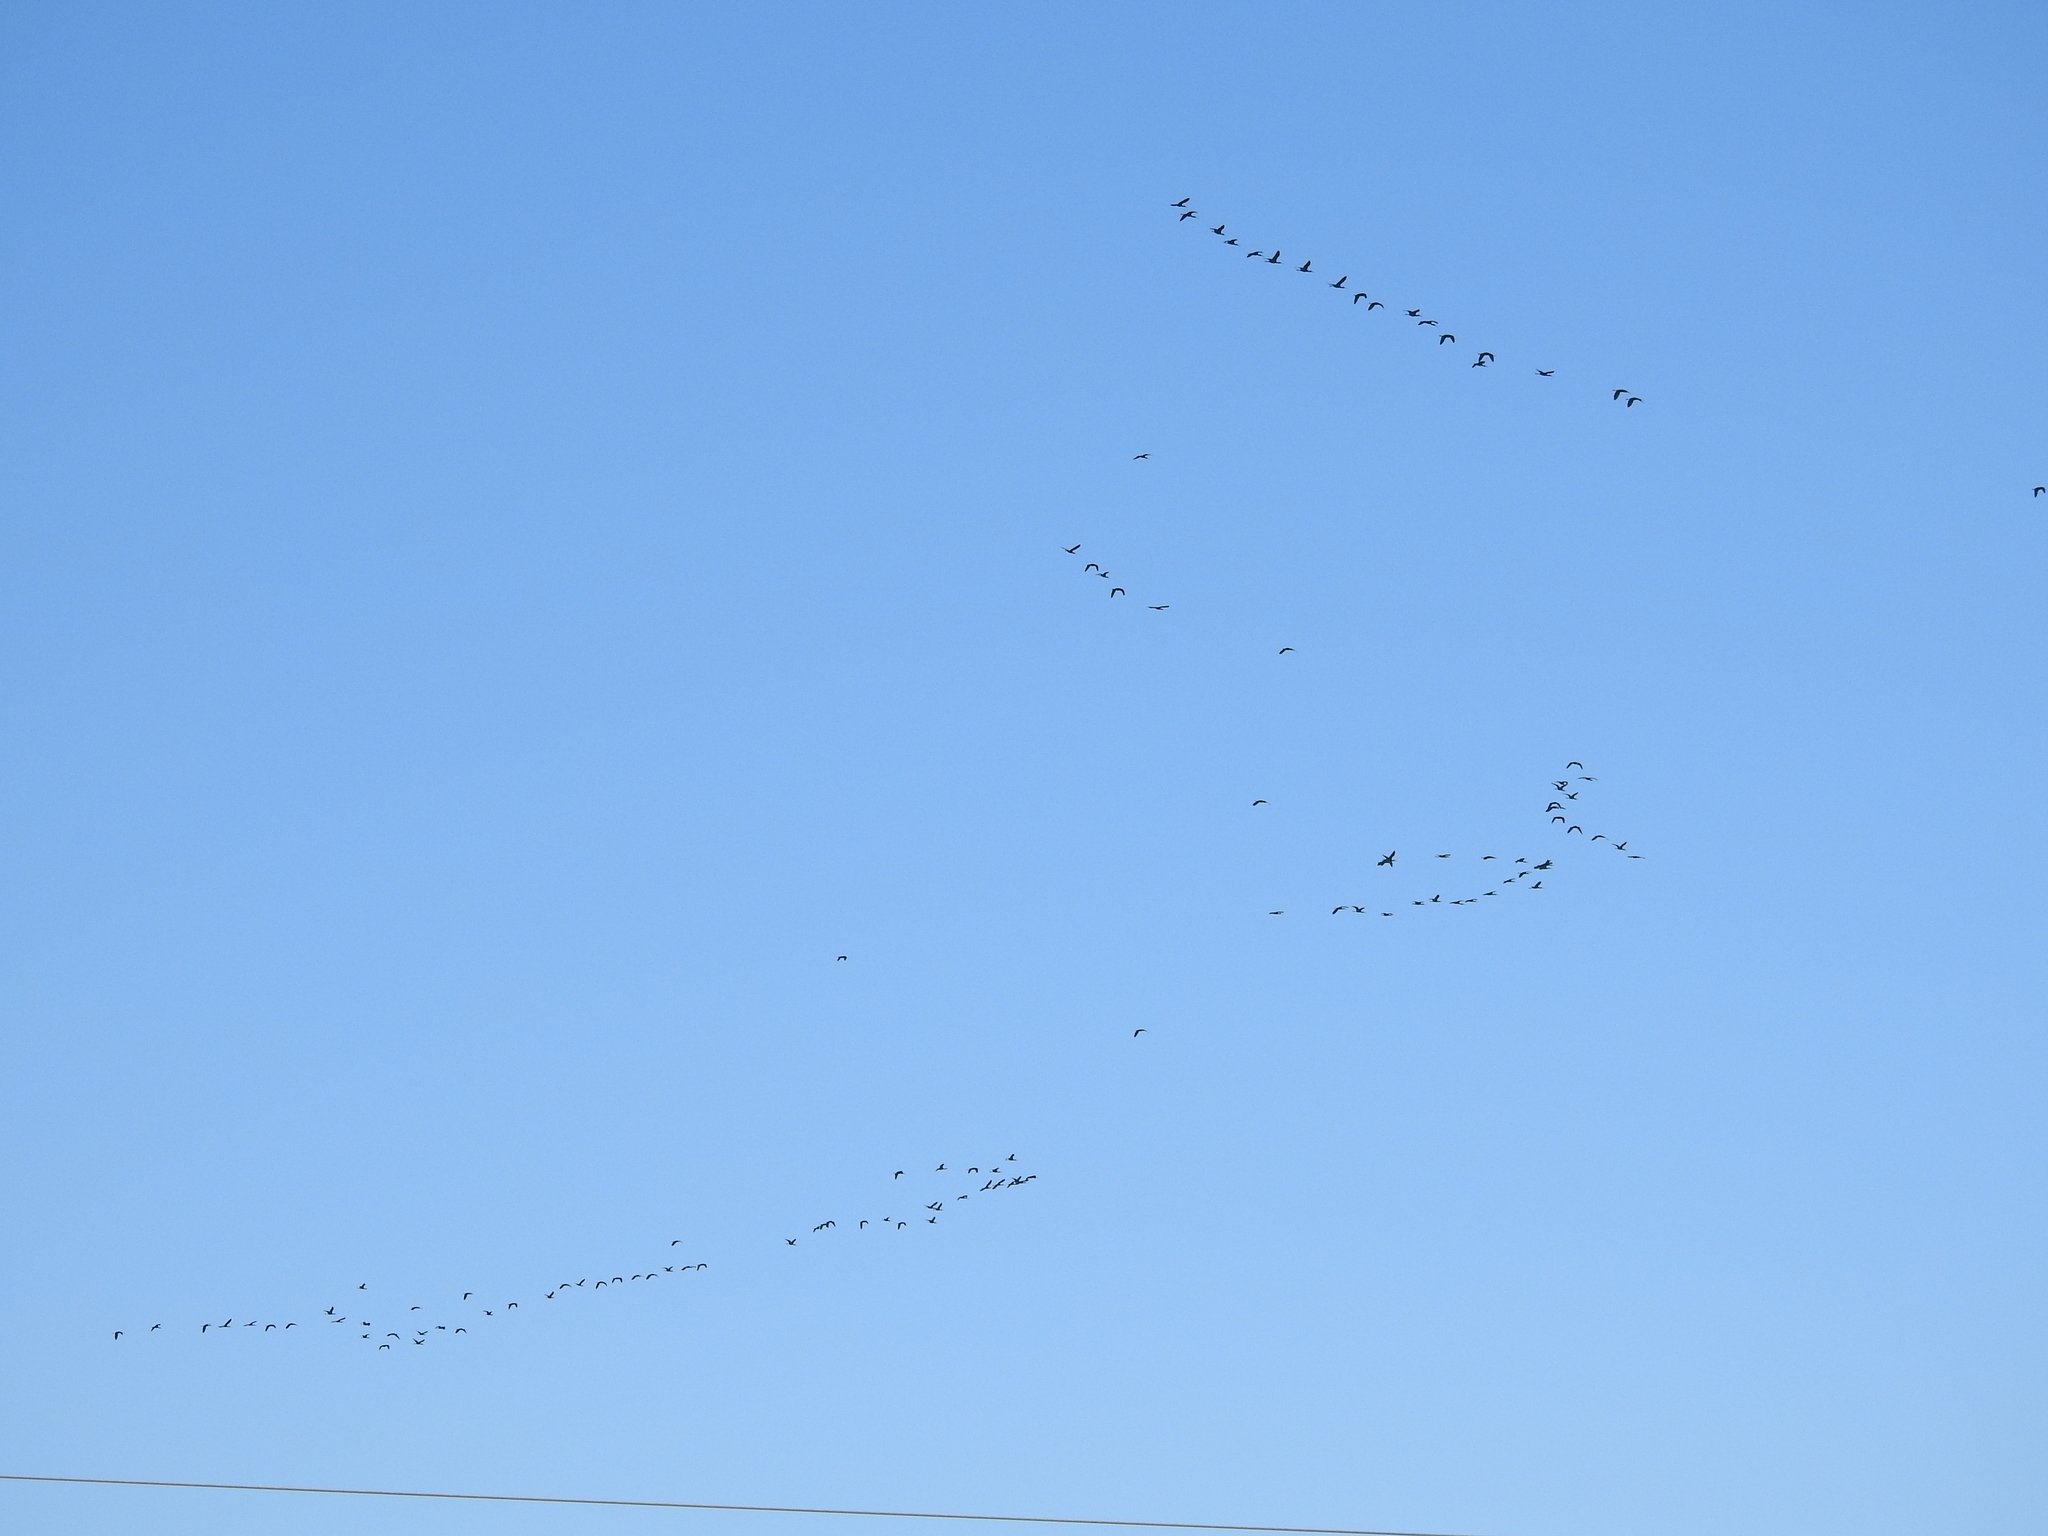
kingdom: Animalia
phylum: Chordata
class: Aves
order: Pelecaniformes
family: Threskiornithidae
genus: Plegadis
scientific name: Plegadis chihi
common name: White-faced ibis
